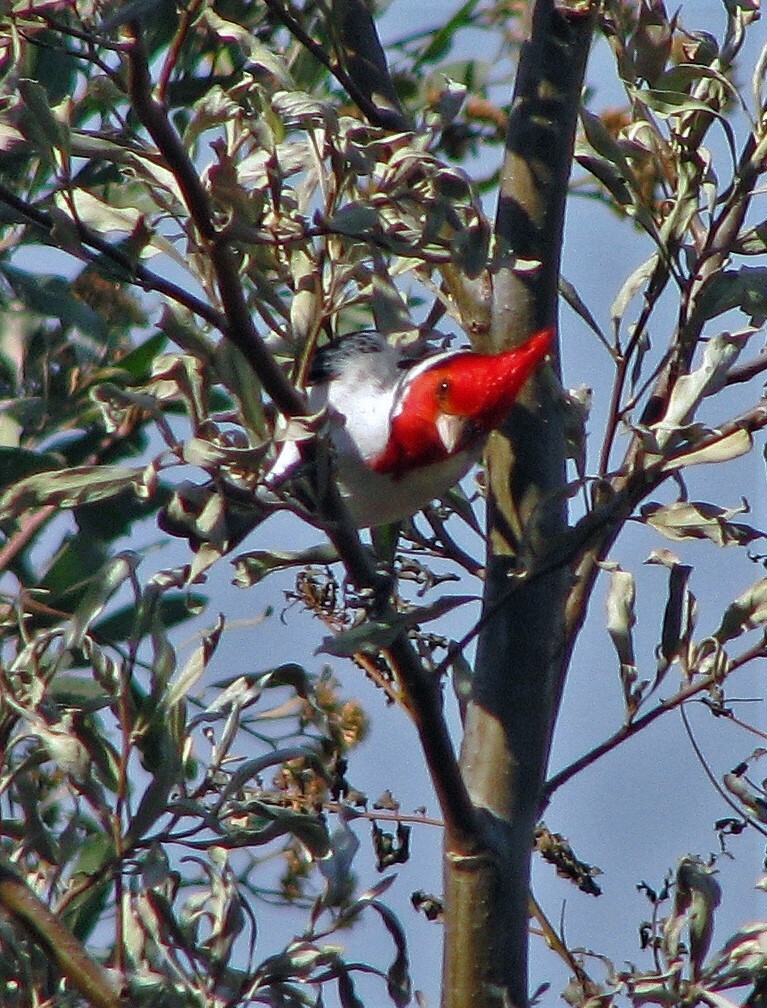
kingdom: Animalia
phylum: Chordata
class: Aves
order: Passeriformes
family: Thraupidae
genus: Paroaria
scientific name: Paroaria coronata
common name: Red-crested cardinal
